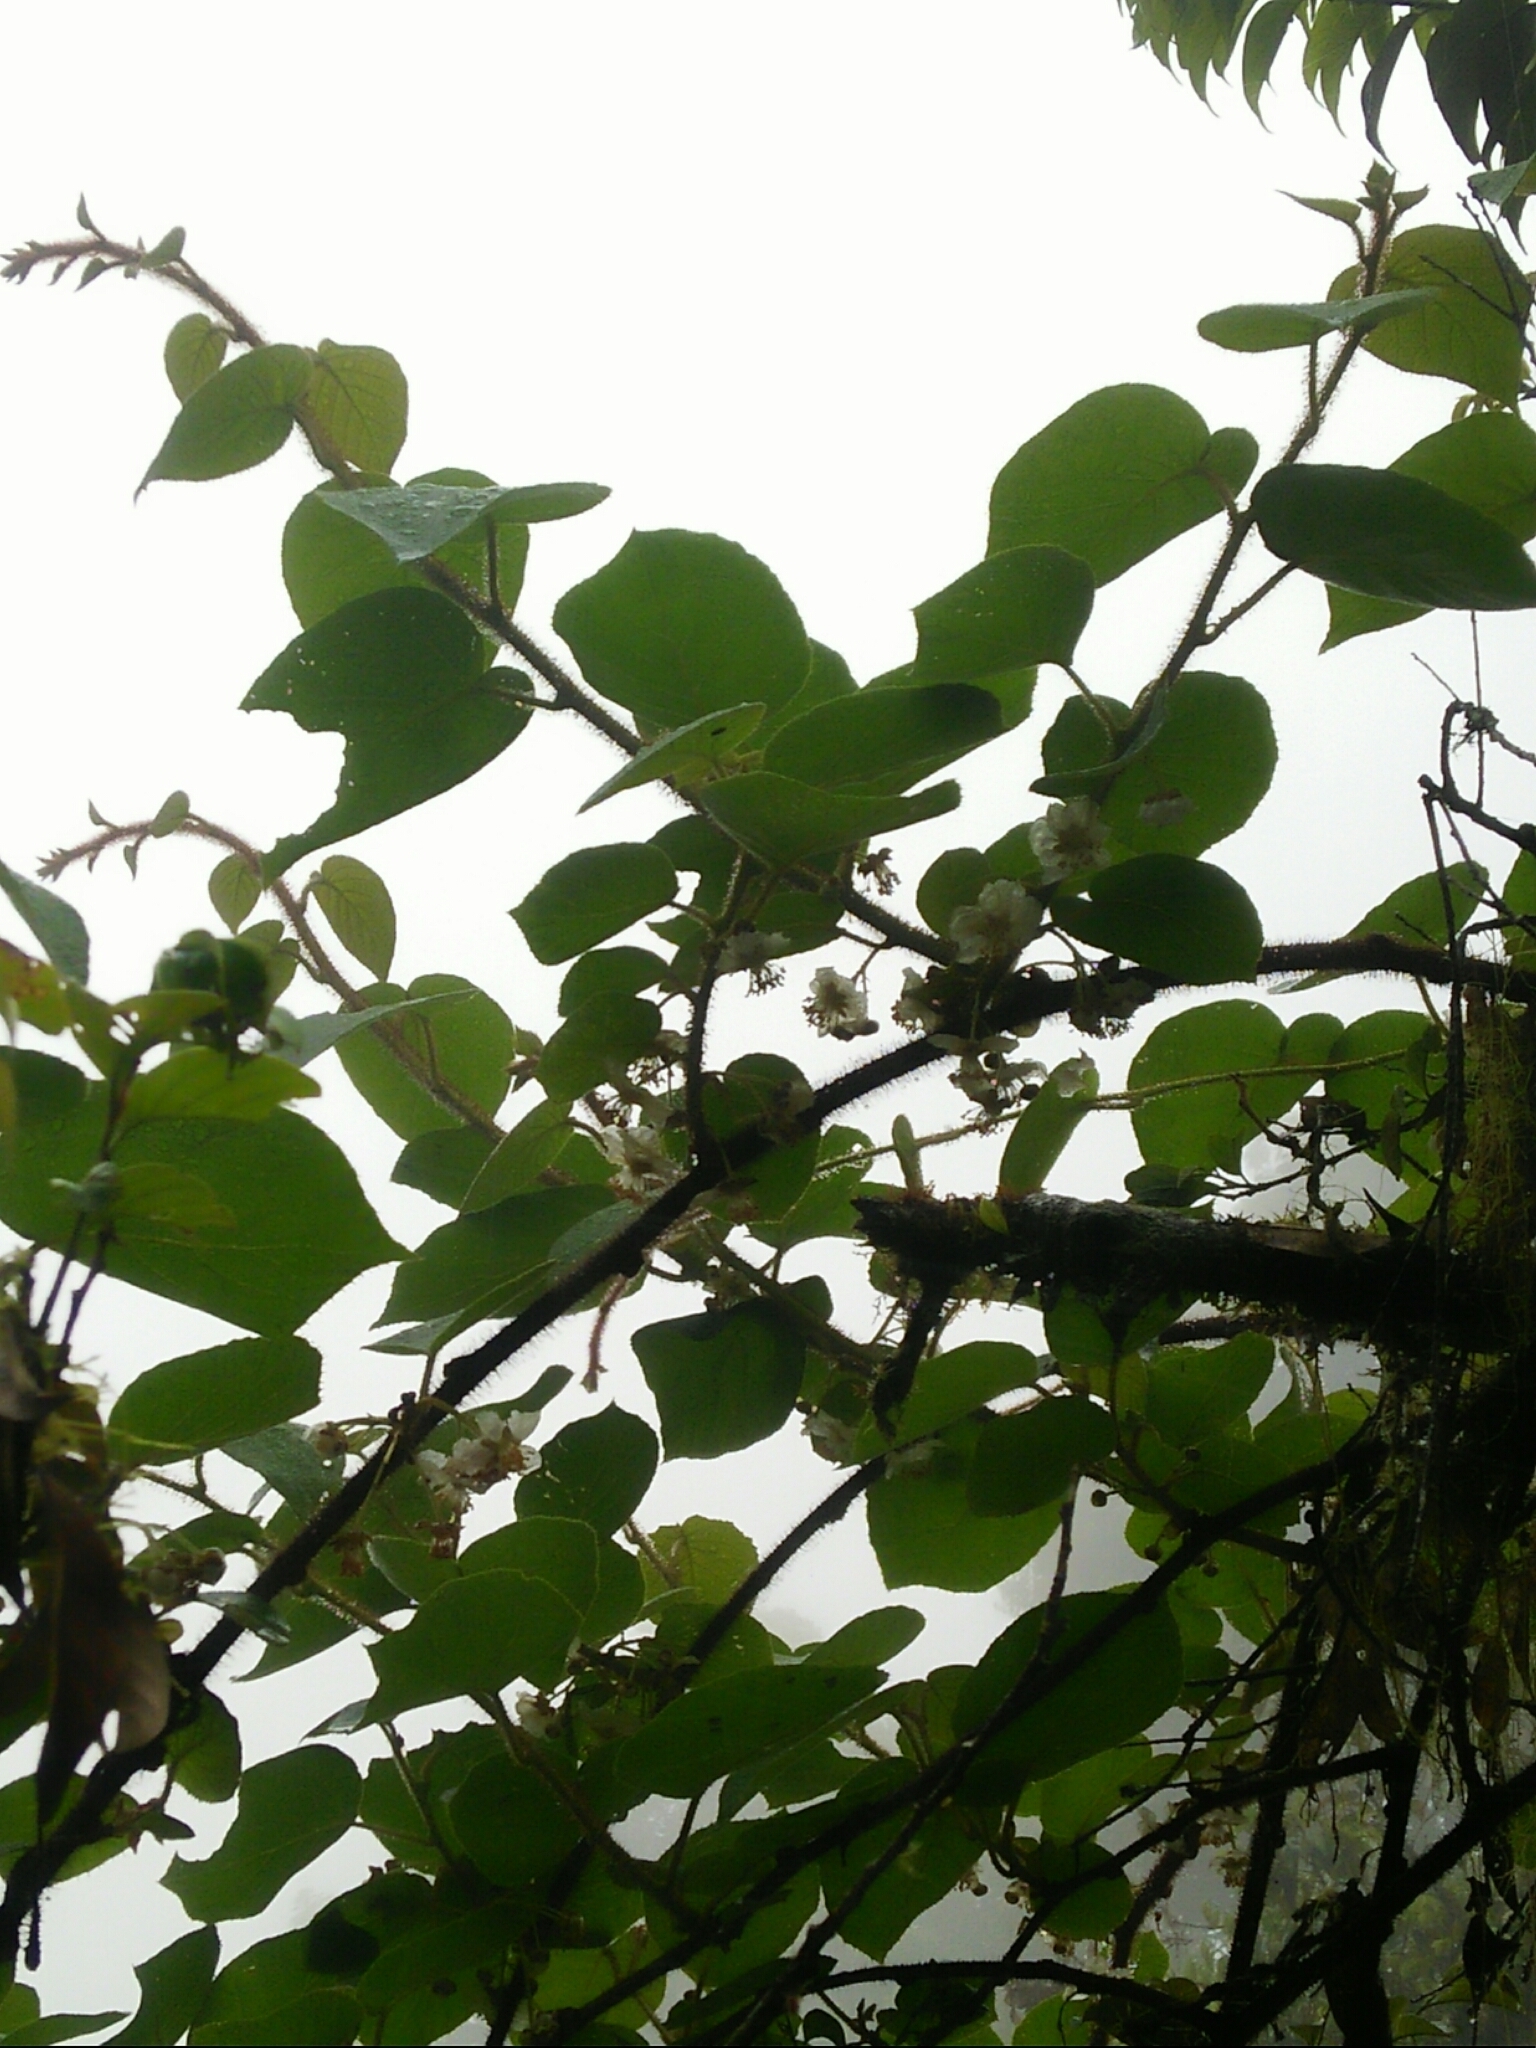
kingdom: Plantae
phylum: Tracheophyta
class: Magnoliopsida
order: Ericales
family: Actinidiaceae
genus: Actinidia
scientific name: Actinidia chinensis
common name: Kiwi
